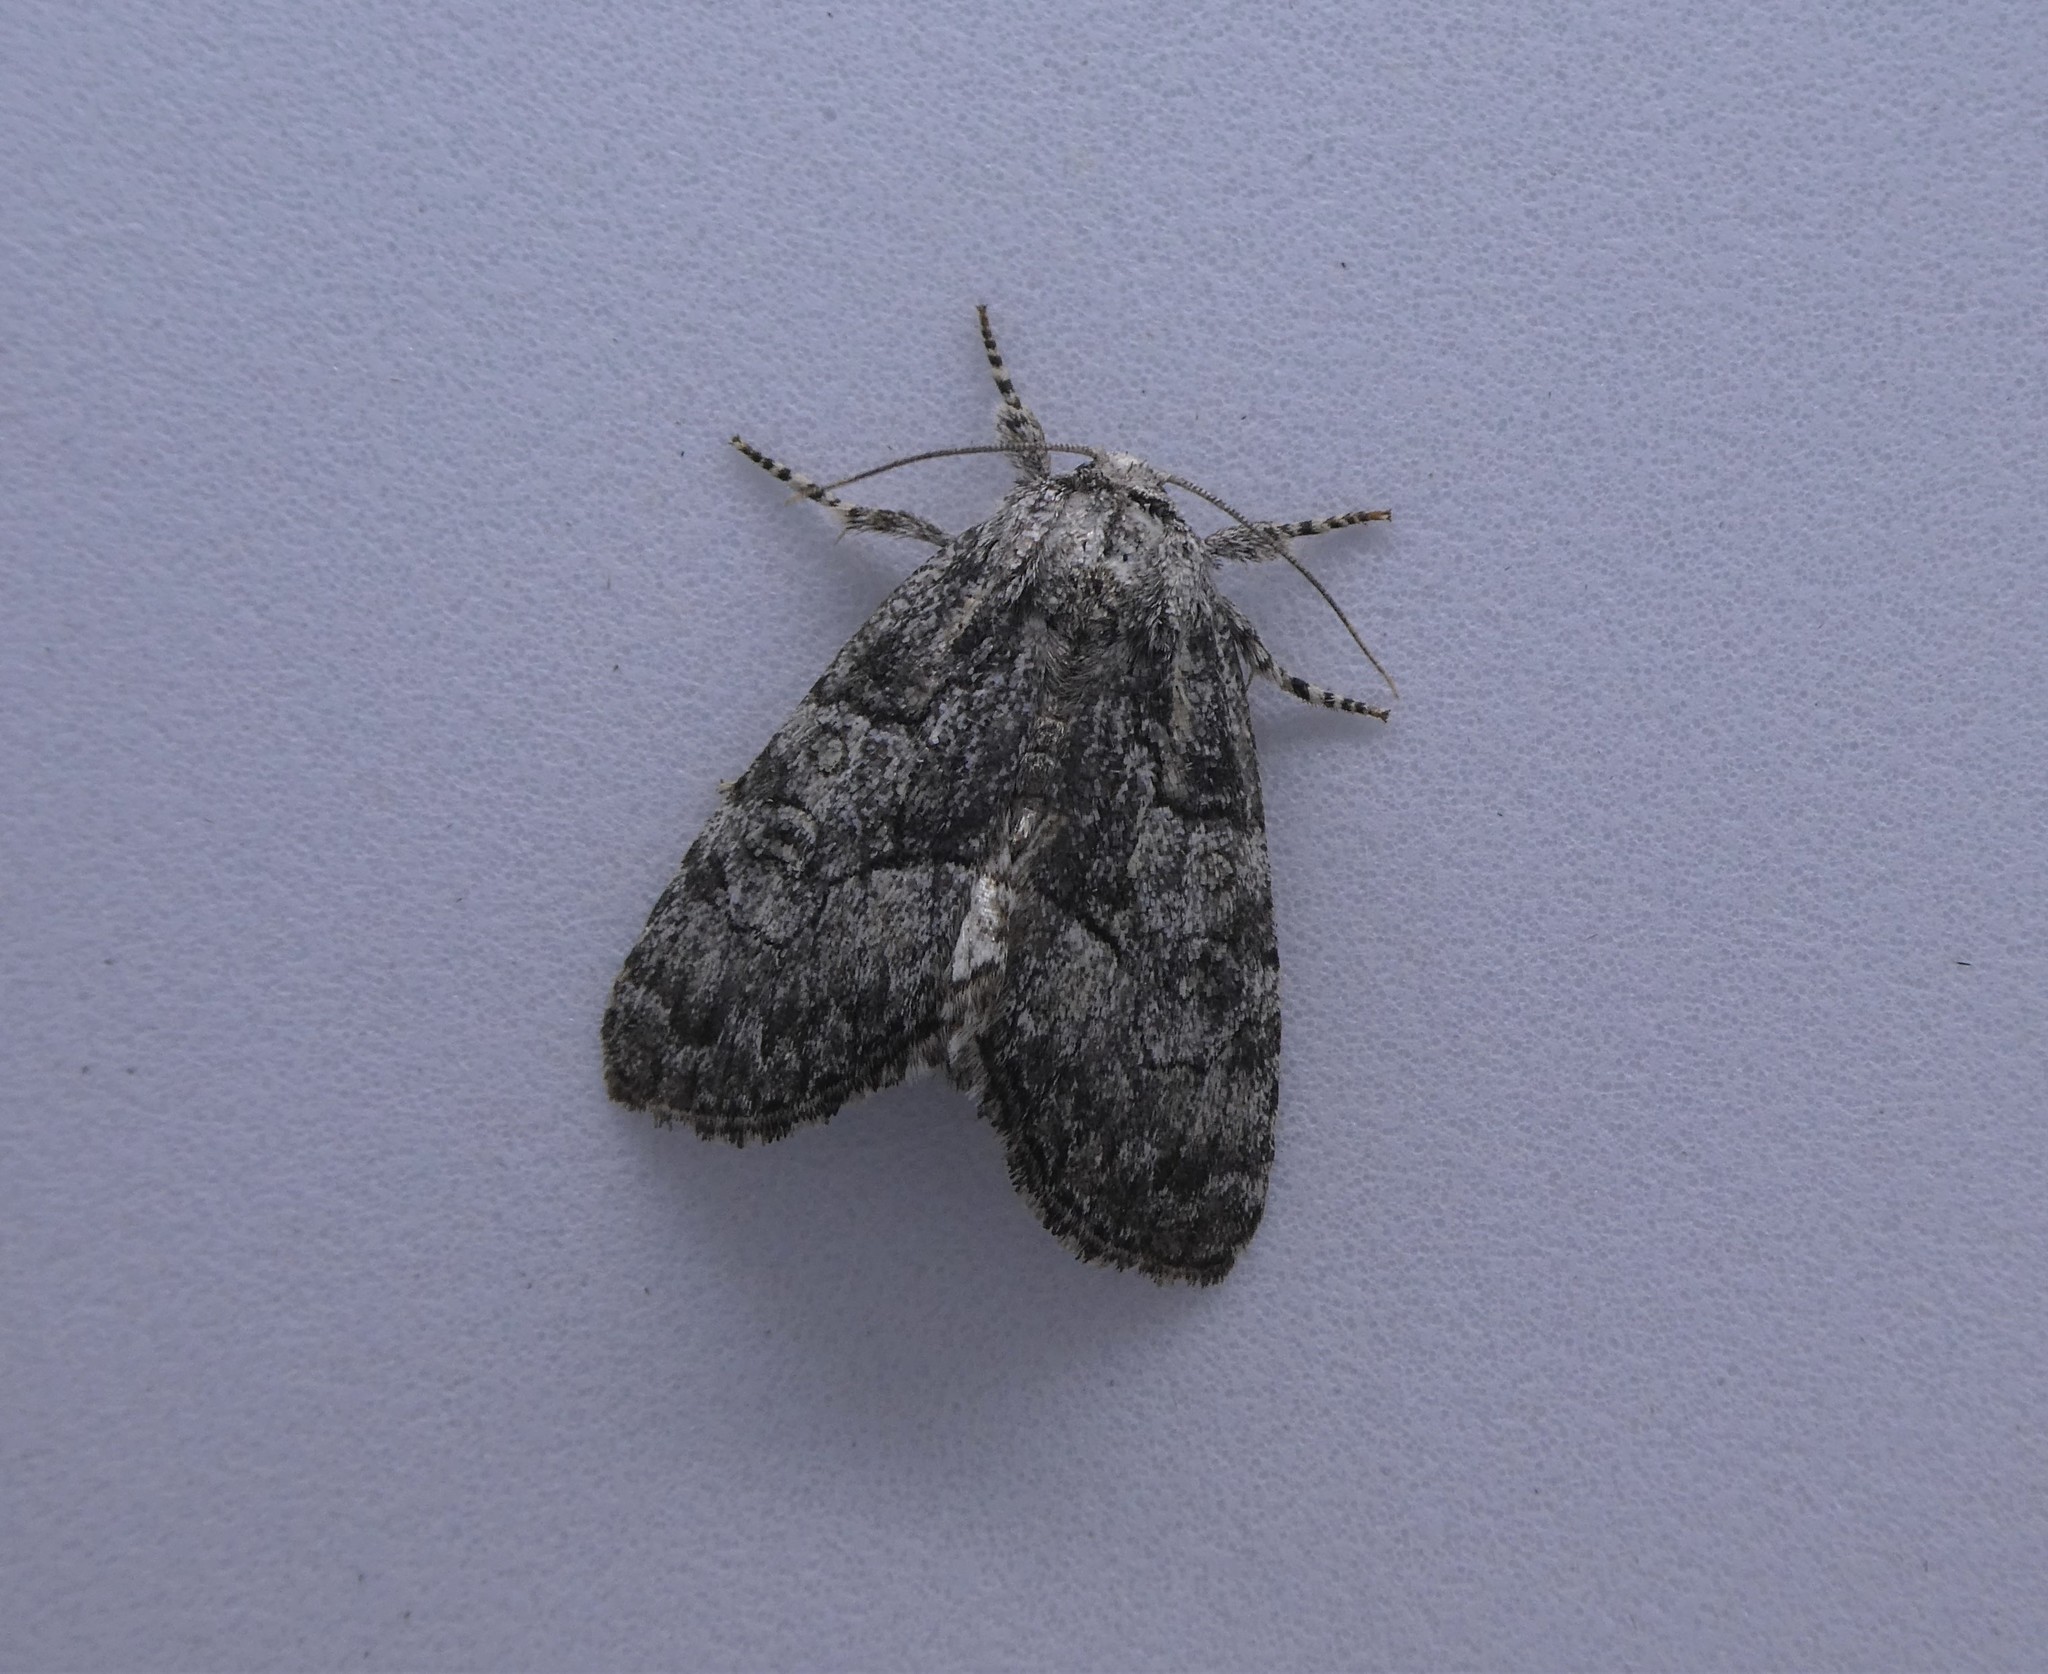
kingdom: Animalia
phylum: Arthropoda
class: Insecta
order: Lepidoptera
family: Noctuidae
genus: Raphia
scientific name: Raphia frater
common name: Brother
